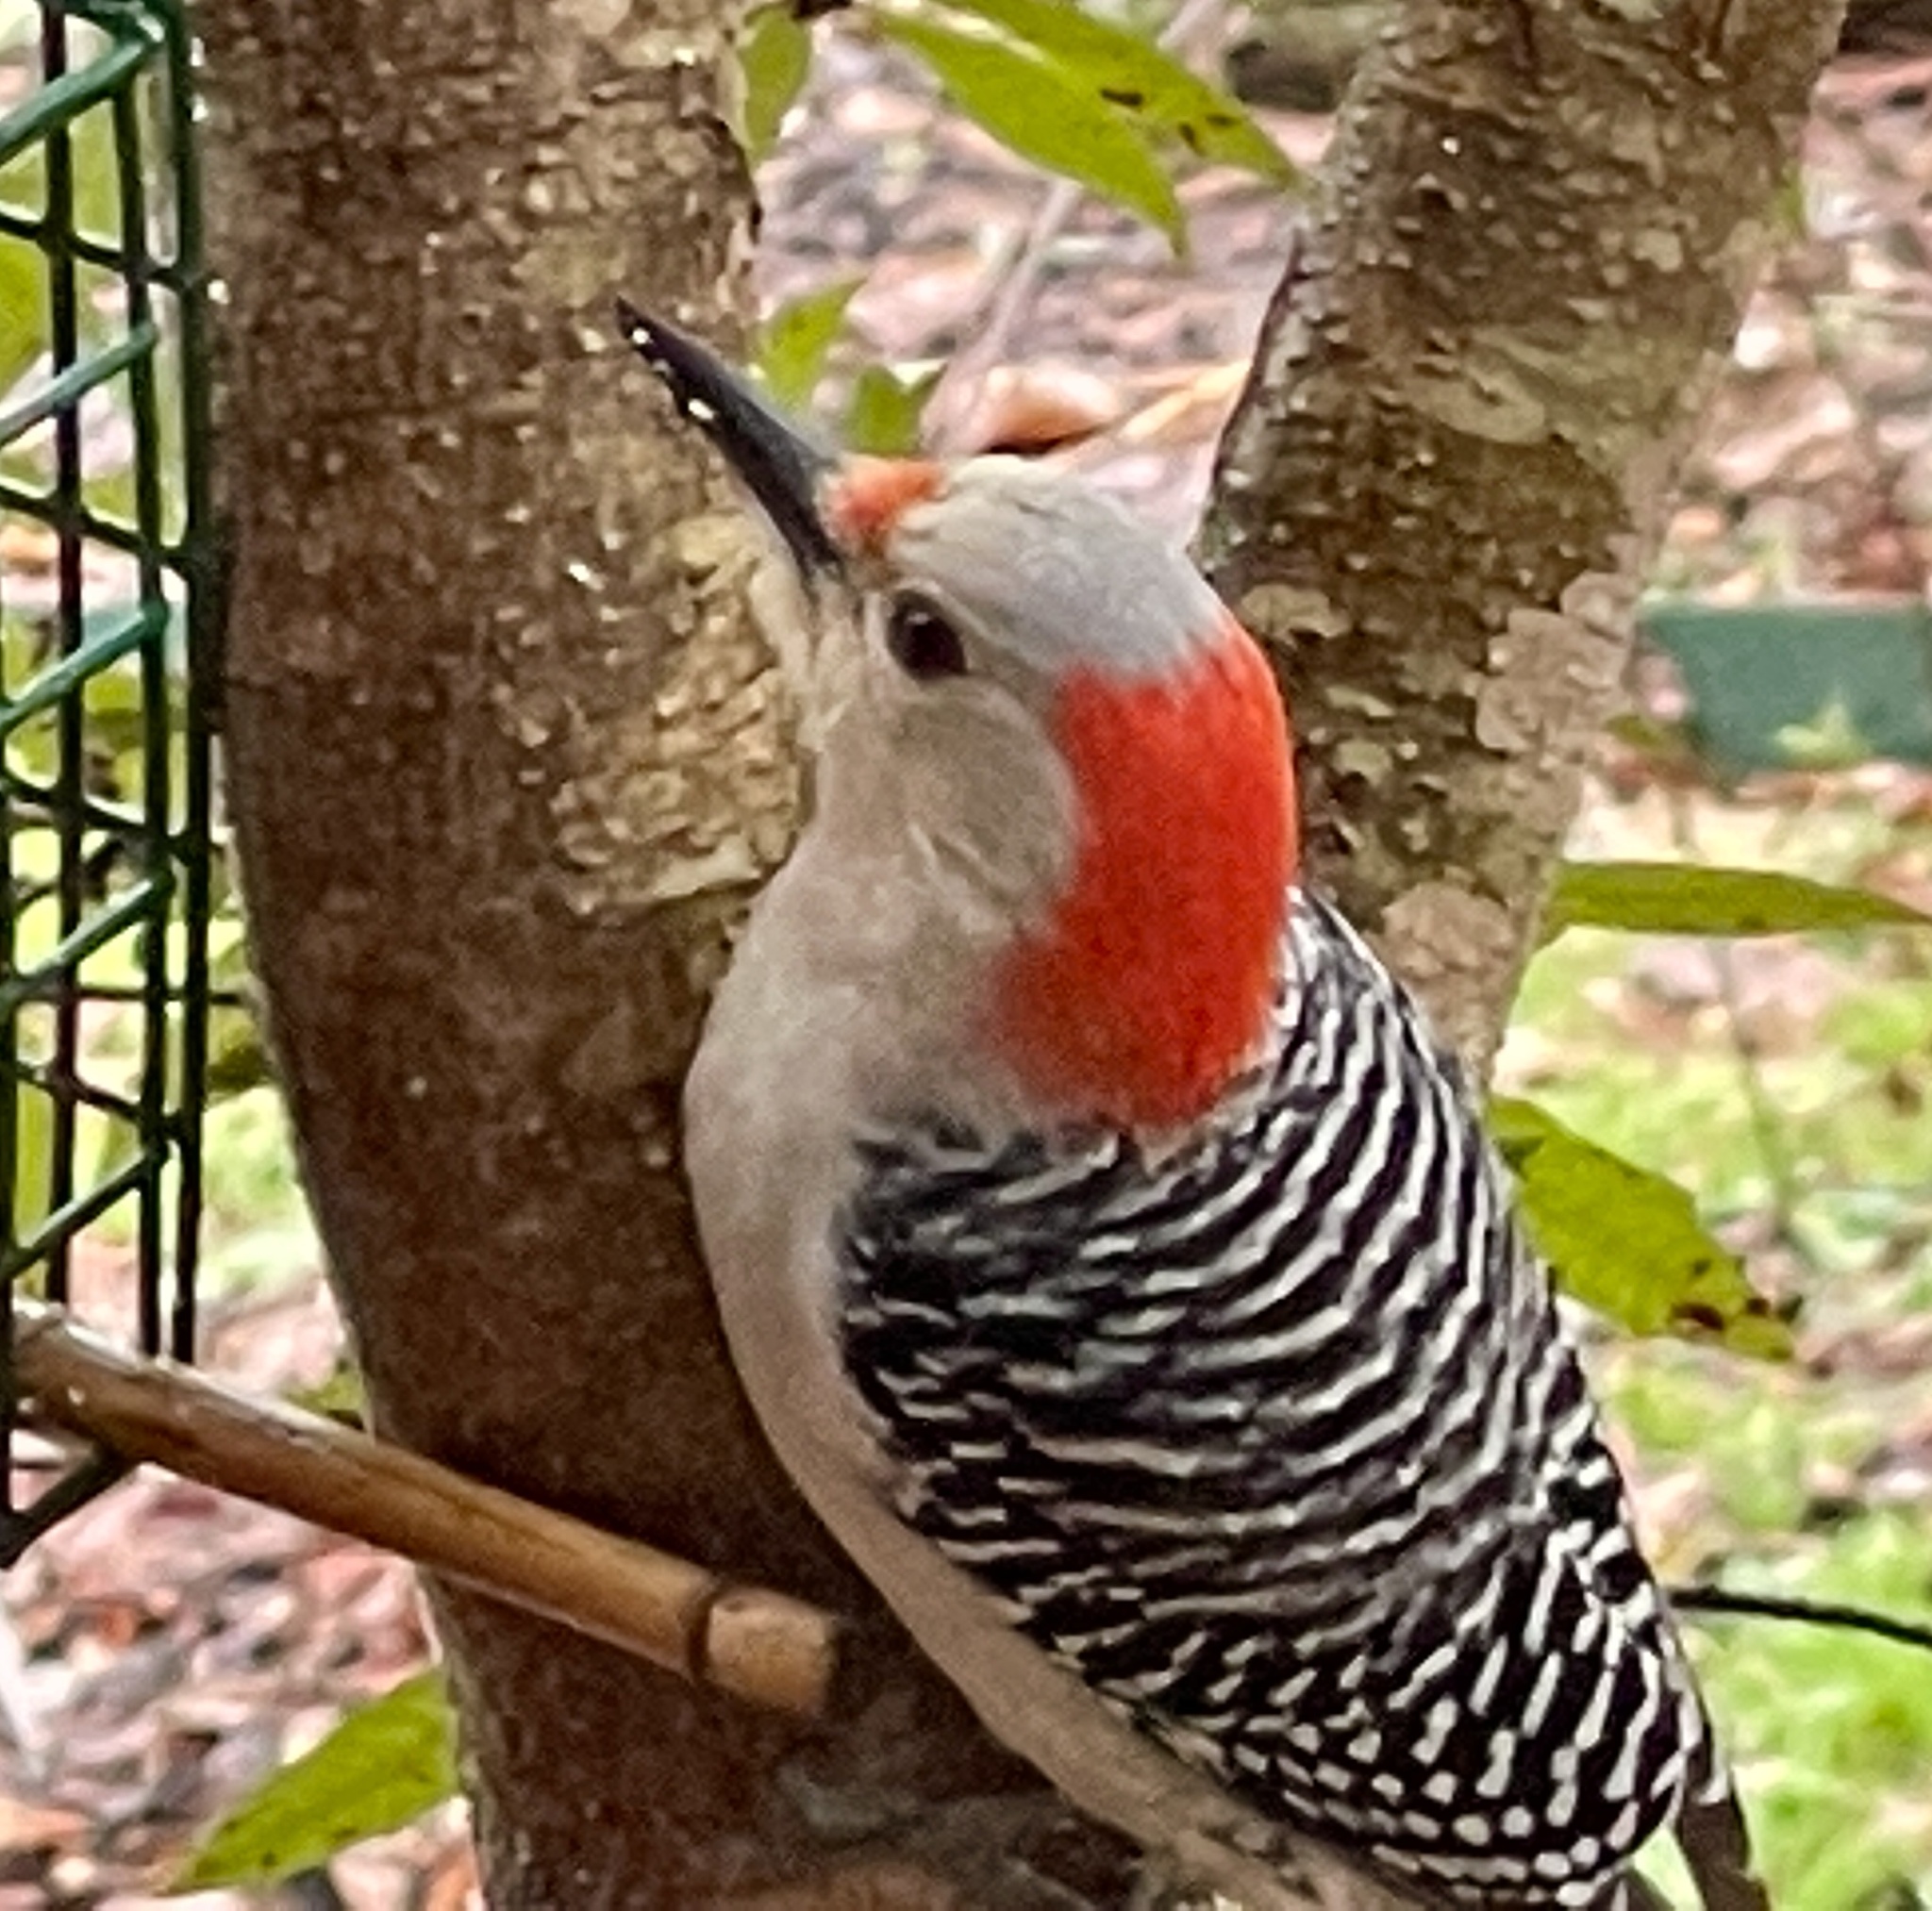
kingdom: Animalia
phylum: Chordata
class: Aves
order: Piciformes
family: Picidae
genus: Melanerpes
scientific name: Melanerpes carolinus
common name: Red-bellied woodpecker
